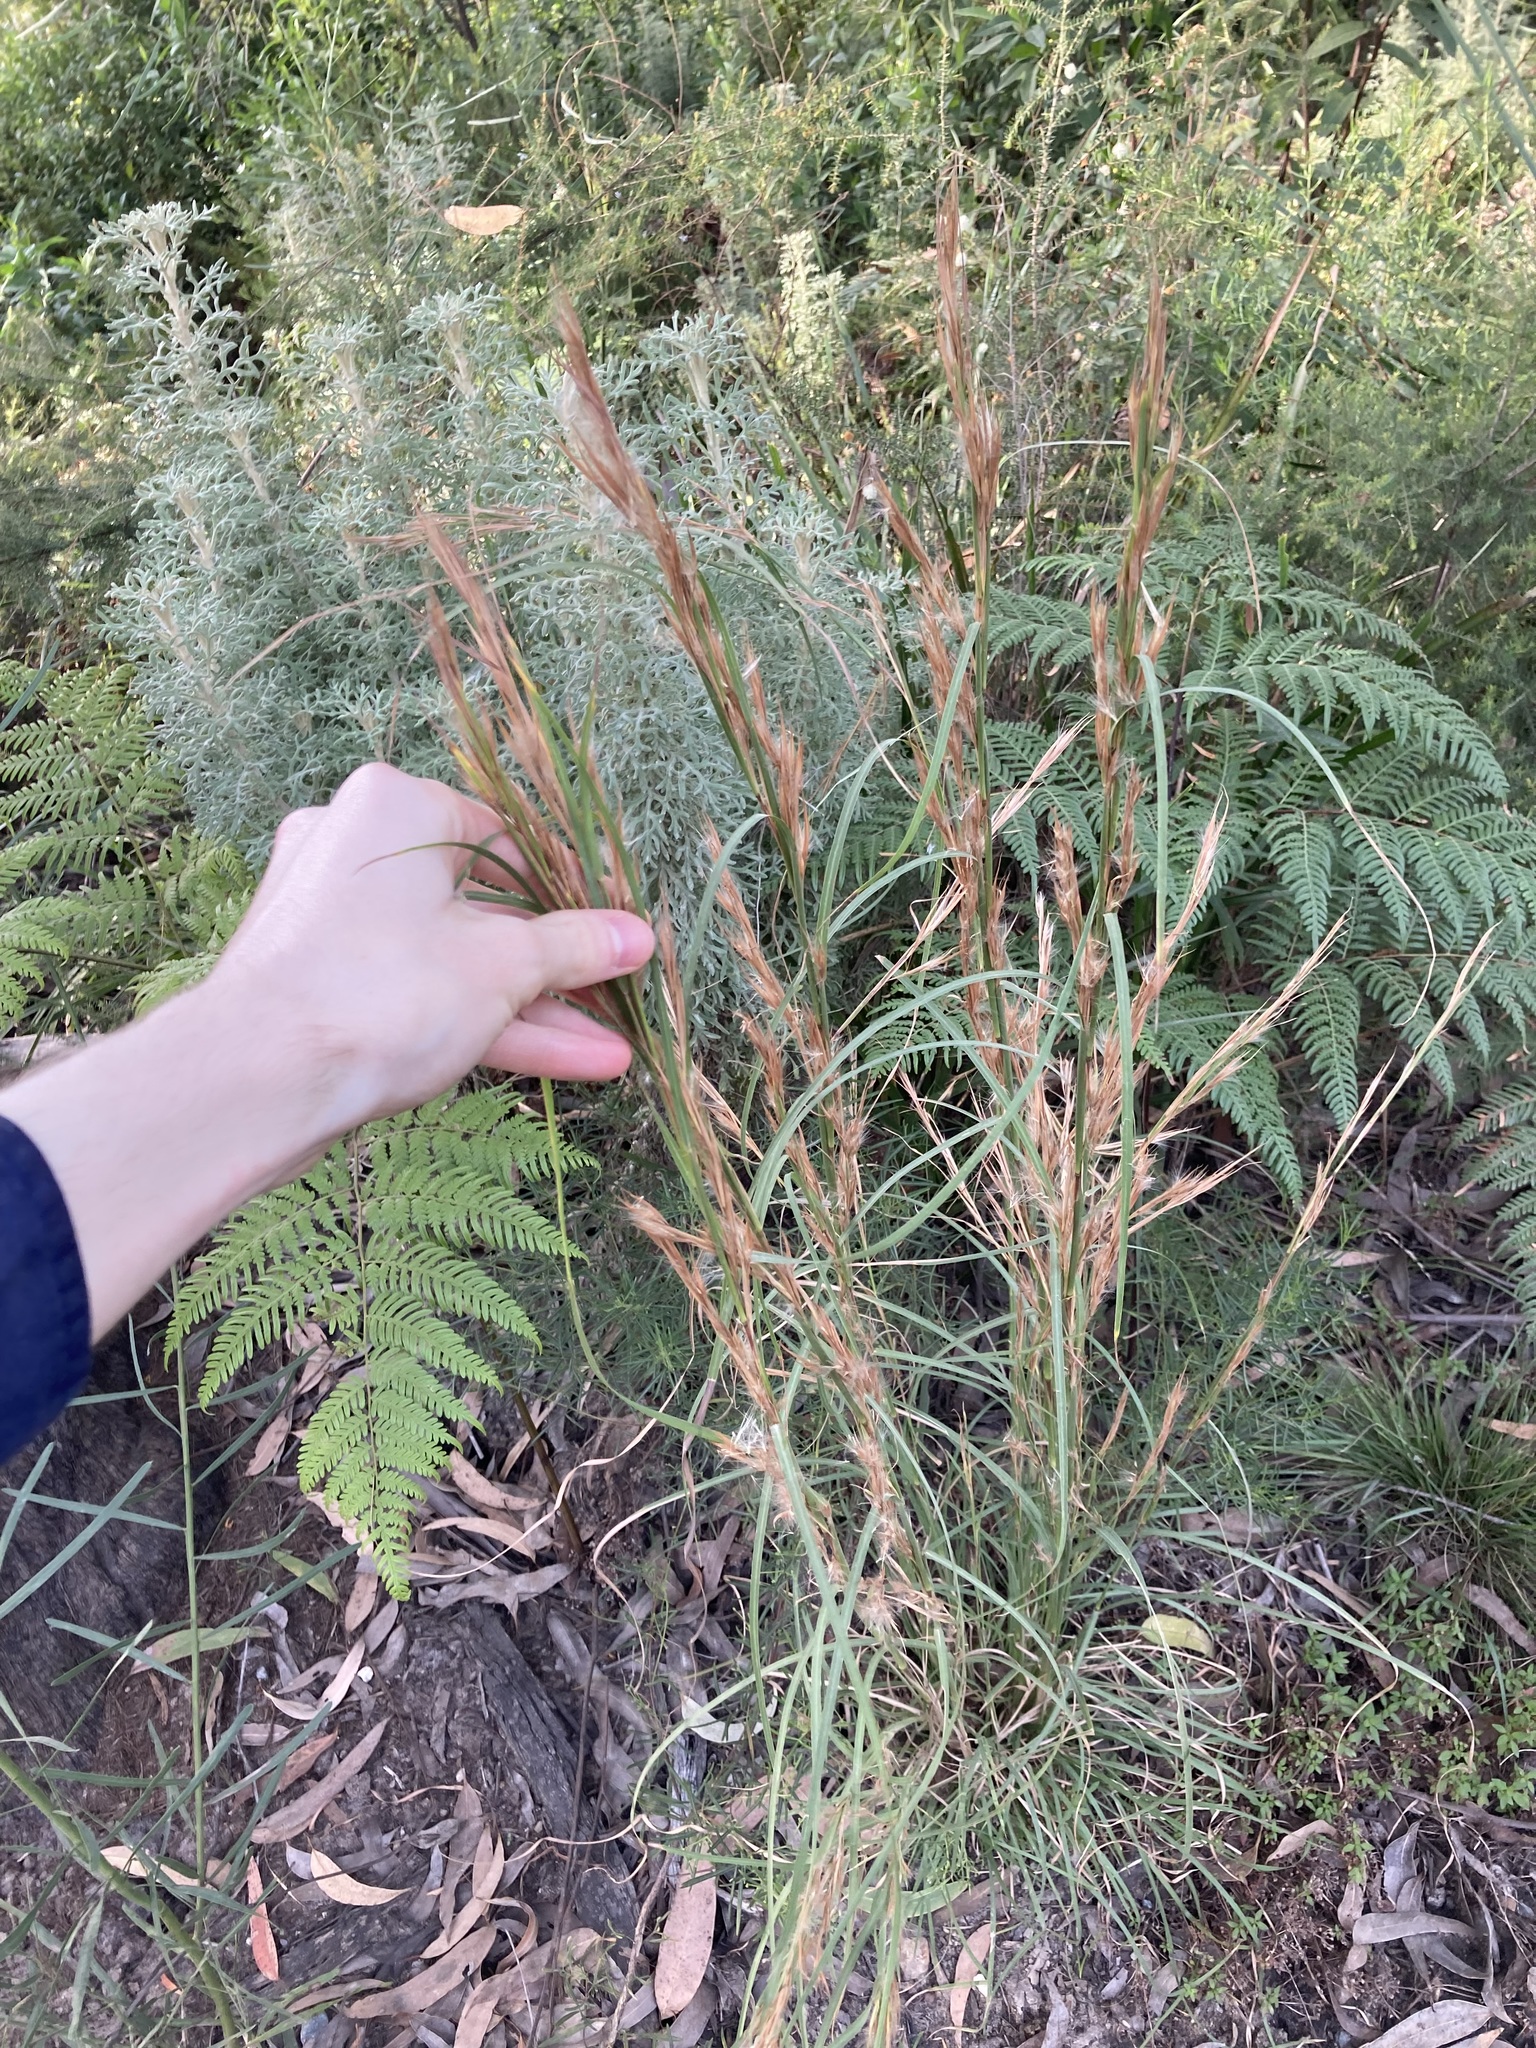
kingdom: Plantae
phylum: Tracheophyta
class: Liliopsida
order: Poales
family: Poaceae
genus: Andropogon
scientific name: Andropogon virginicus
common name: Broomsedge bluestem
